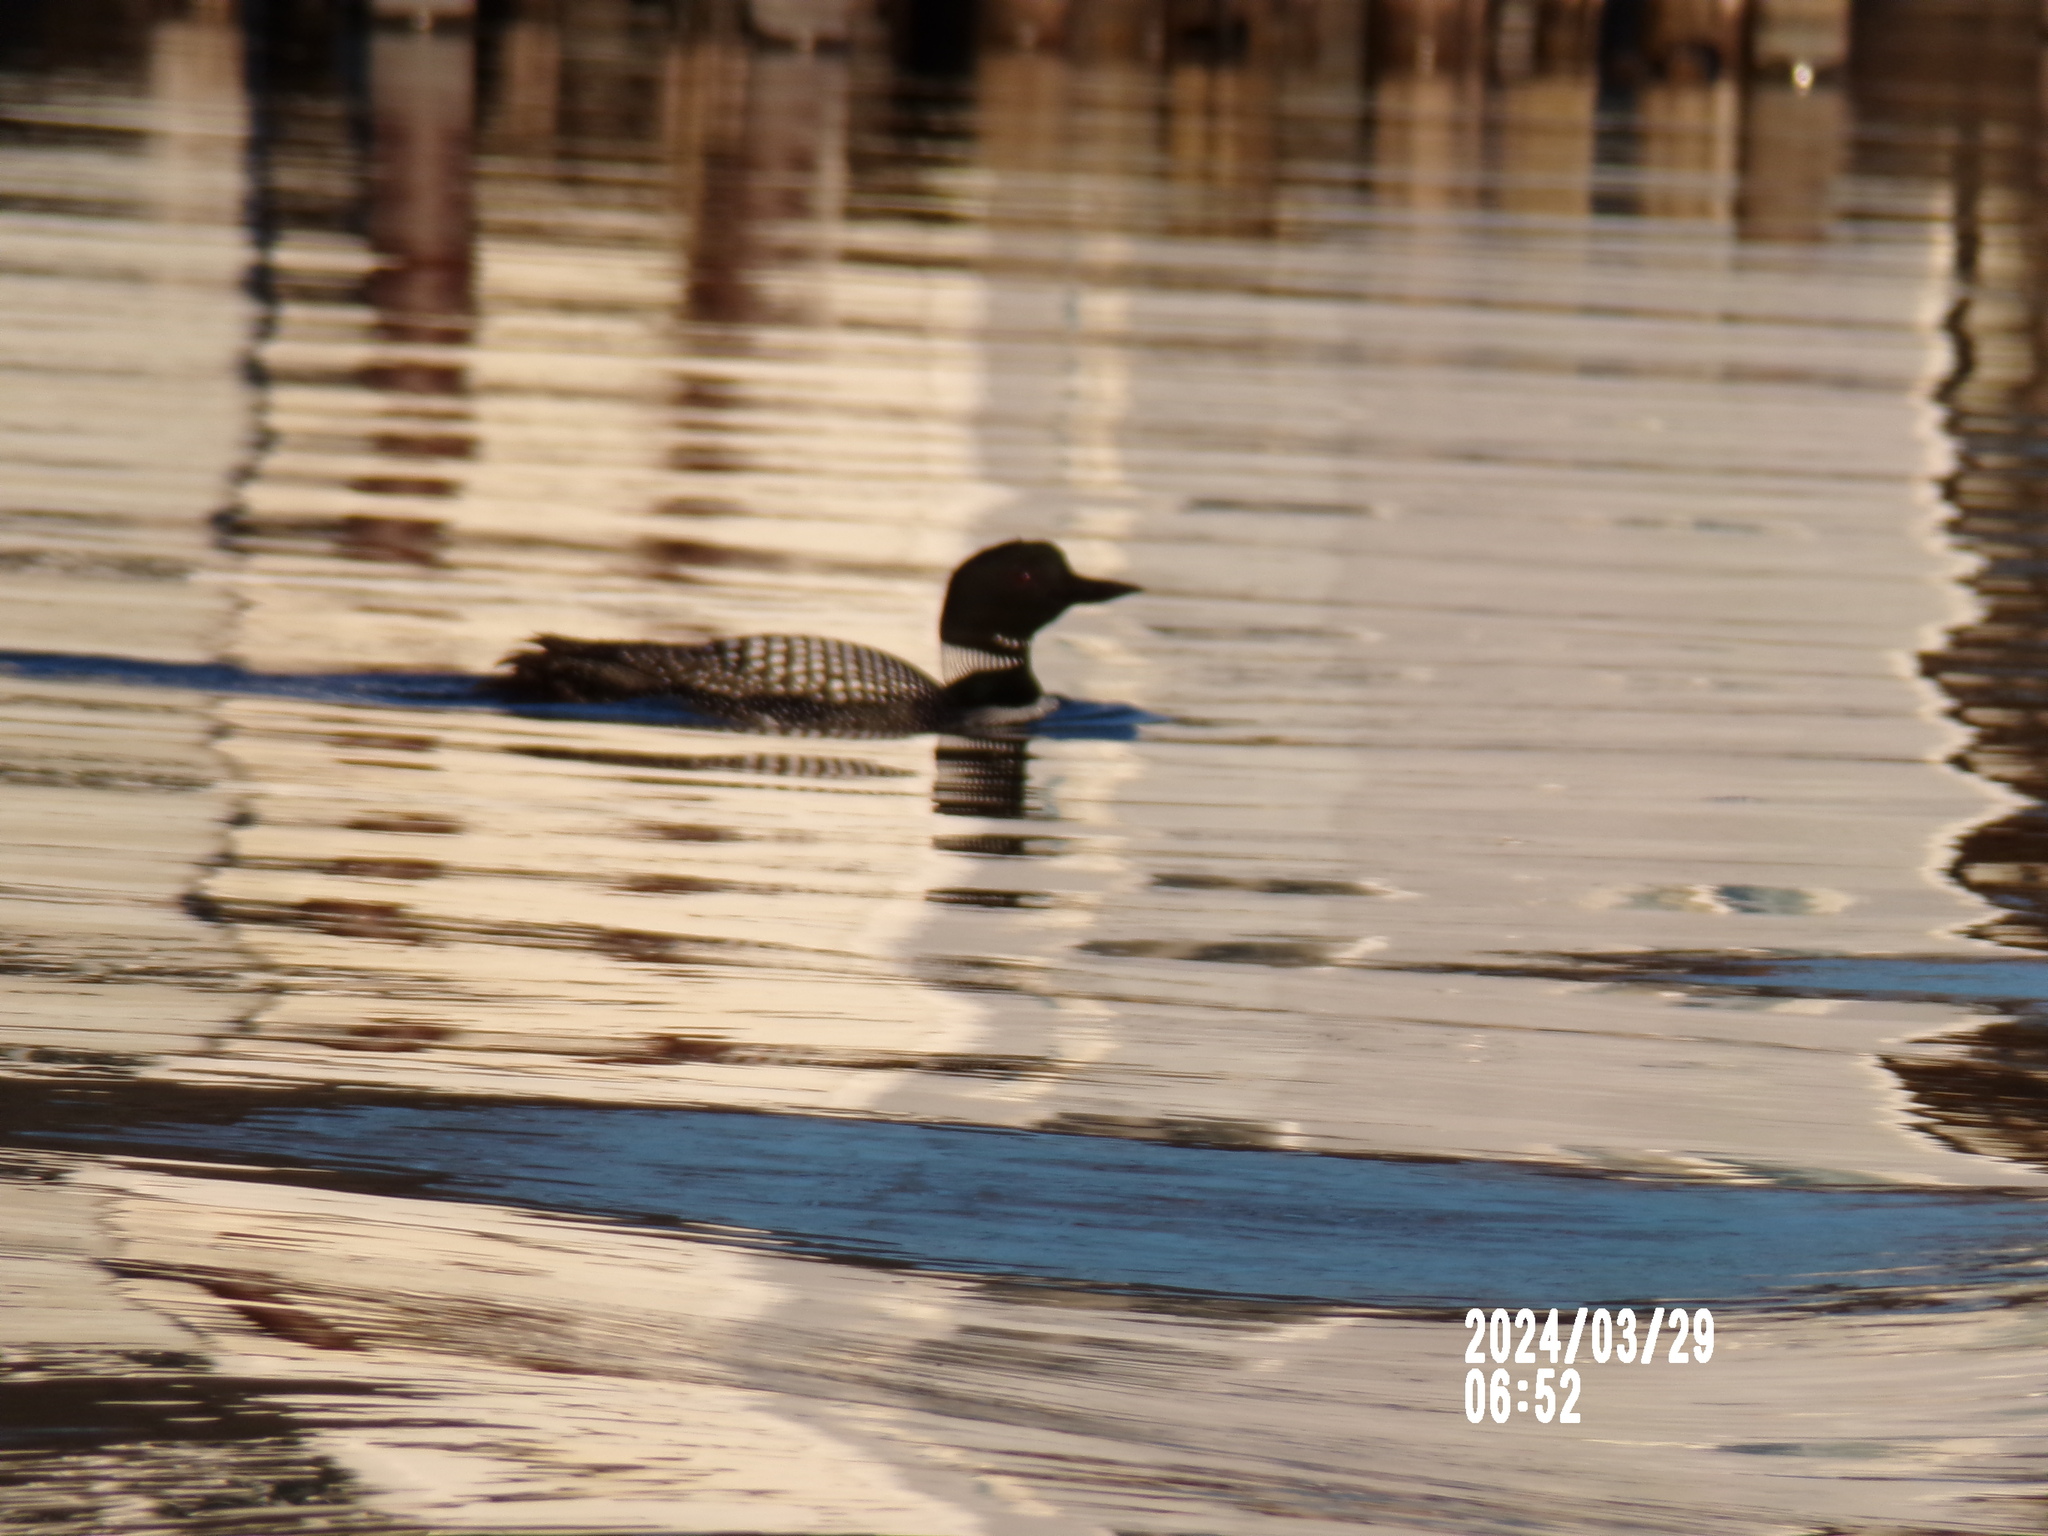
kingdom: Animalia
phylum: Chordata
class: Aves
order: Gaviiformes
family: Gaviidae
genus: Gavia
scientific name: Gavia immer
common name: Common loon
